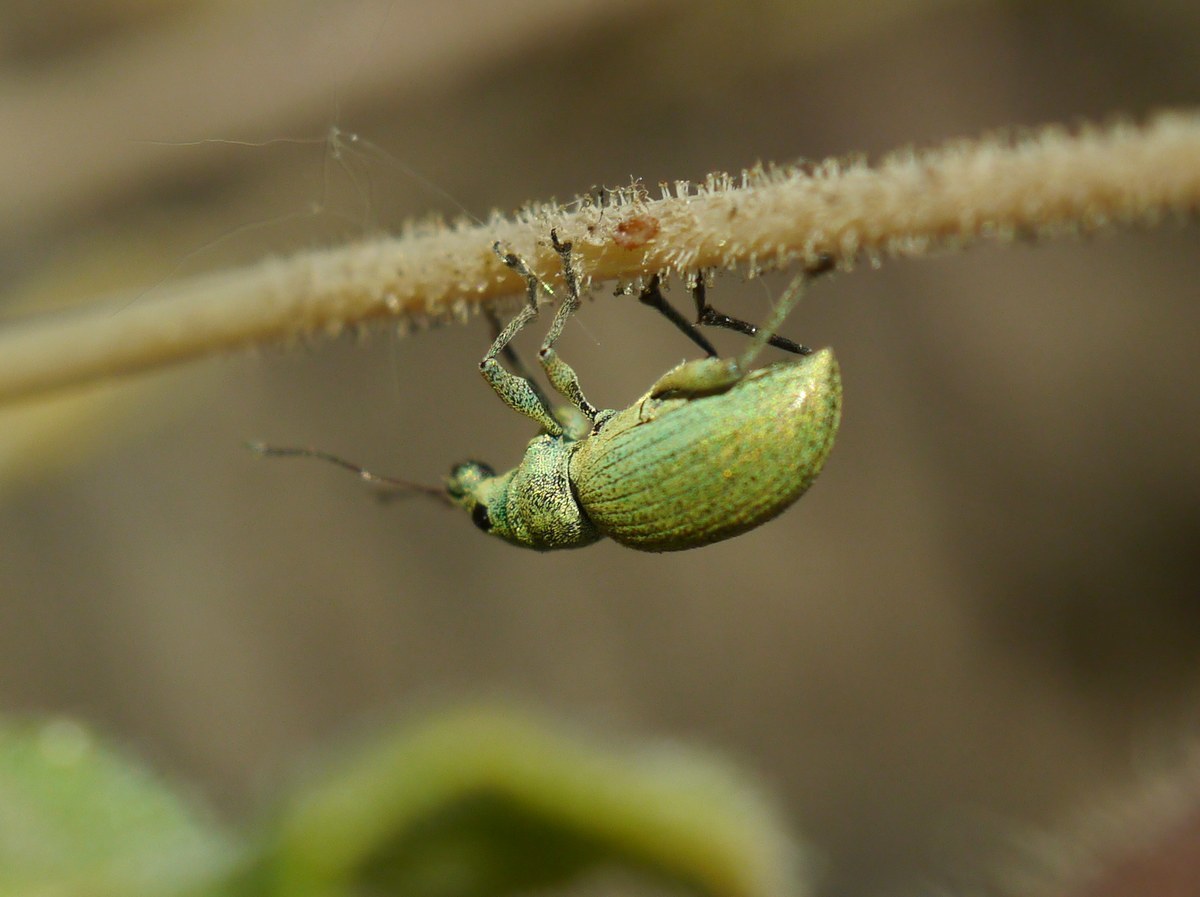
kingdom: Animalia
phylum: Arthropoda
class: Insecta
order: Coleoptera
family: Curculionidae
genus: Eusomus
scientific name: Eusomus ovulum
